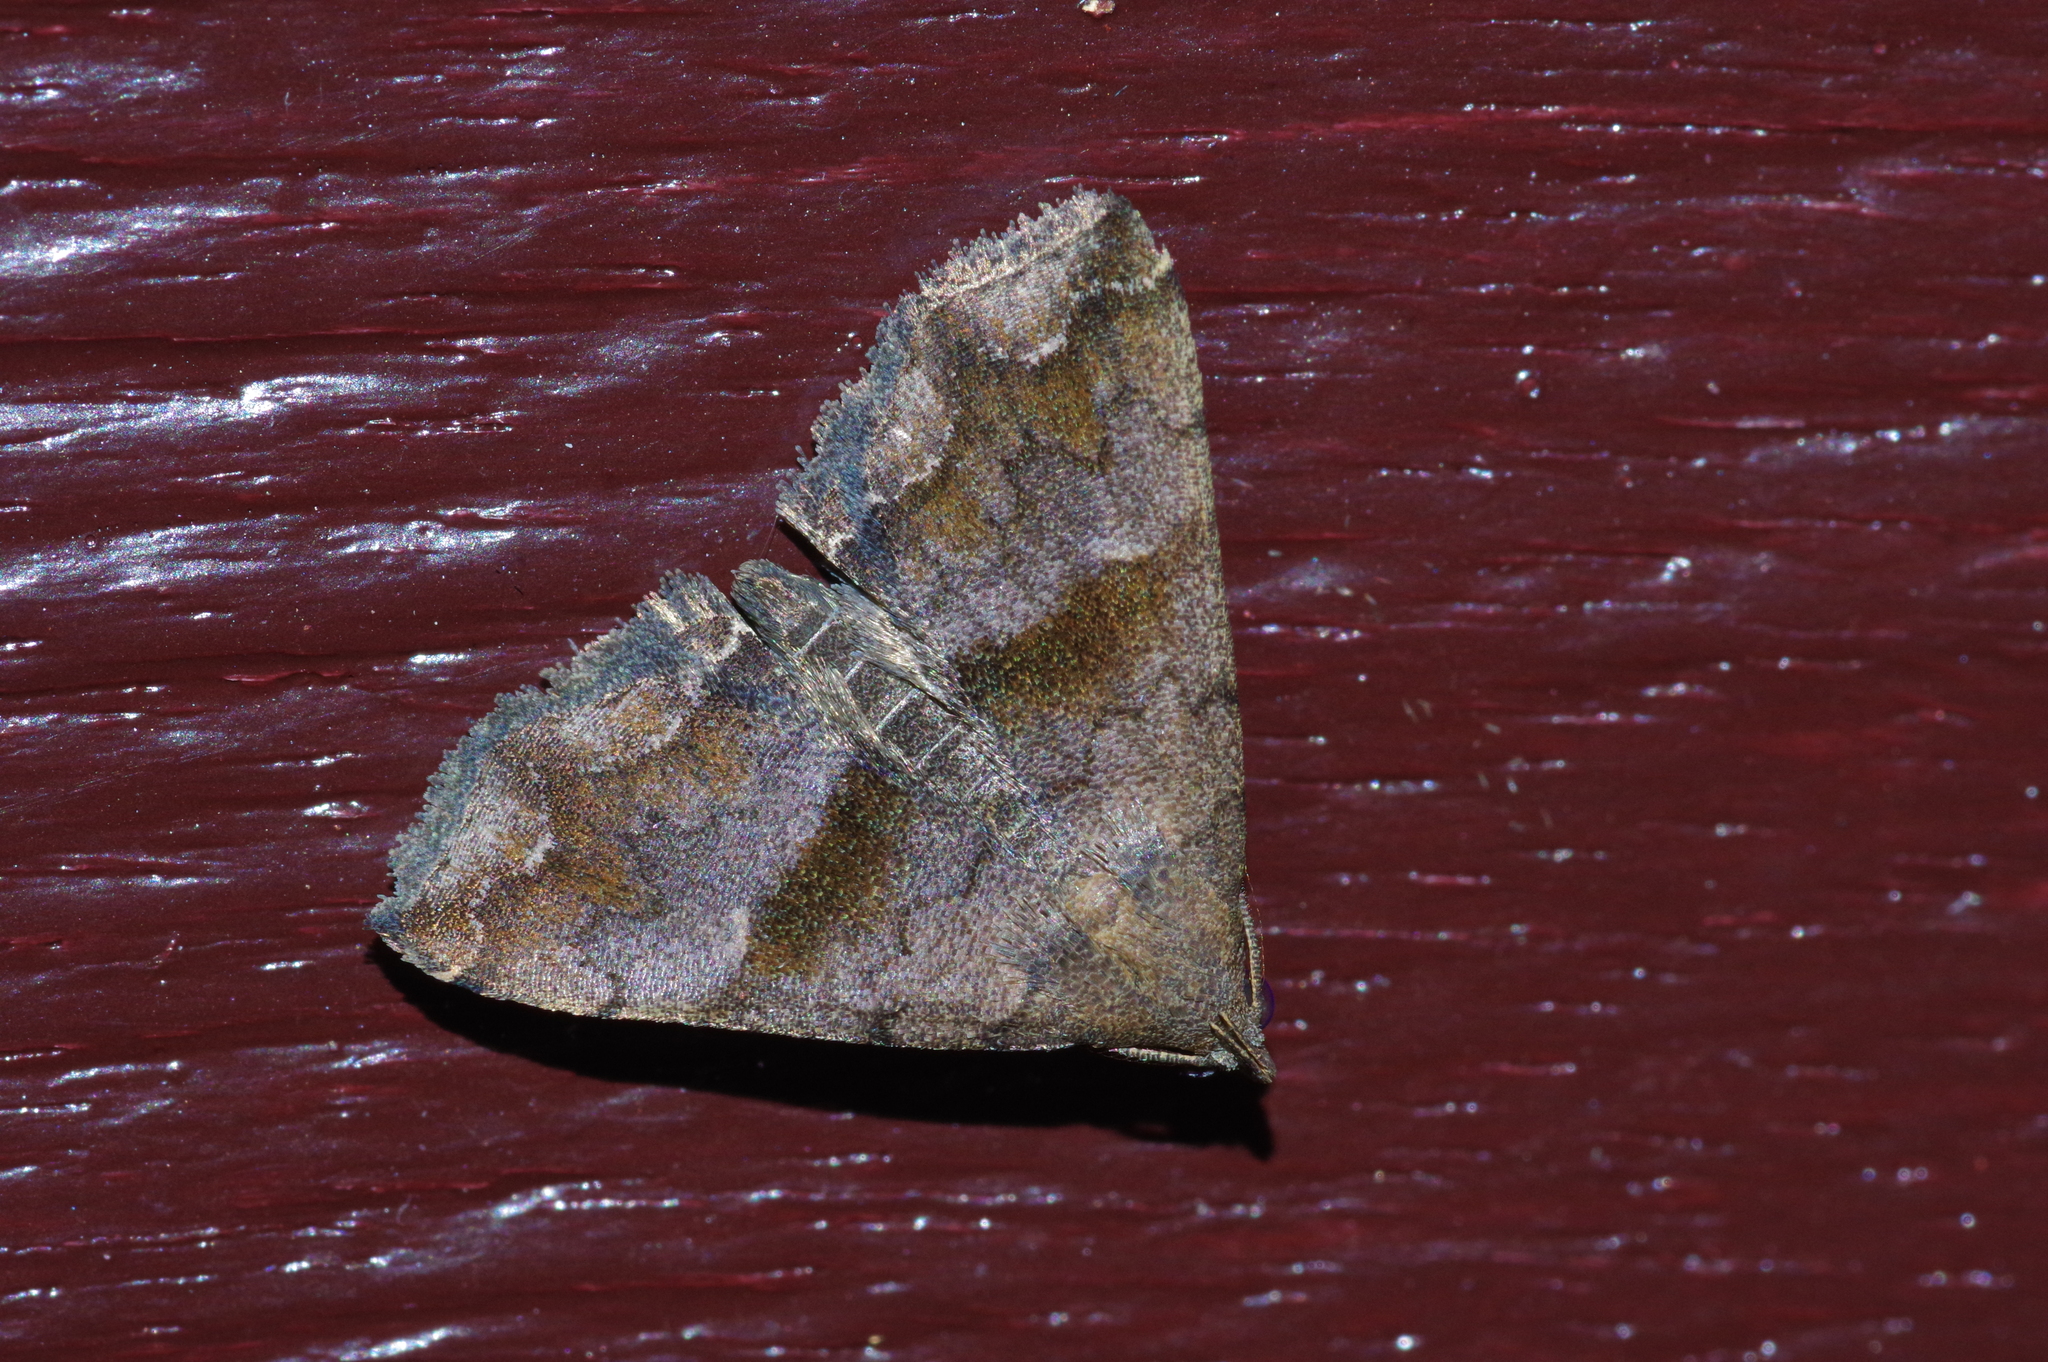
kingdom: Animalia
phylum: Arthropoda
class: Insecta
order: Lepidoptera
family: Erebidae
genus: Polypogon
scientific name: Polypogon Hipoepa fractalis
